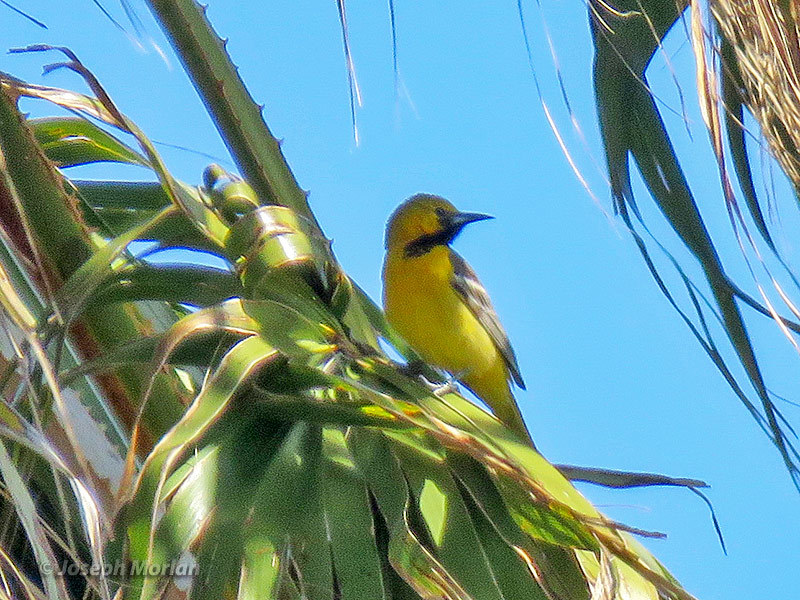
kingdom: Animalia
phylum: Chordata
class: Aves
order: Passeriformes
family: Icteridae
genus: Icterus
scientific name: Icterus cucullatus
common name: Hooded oriole
